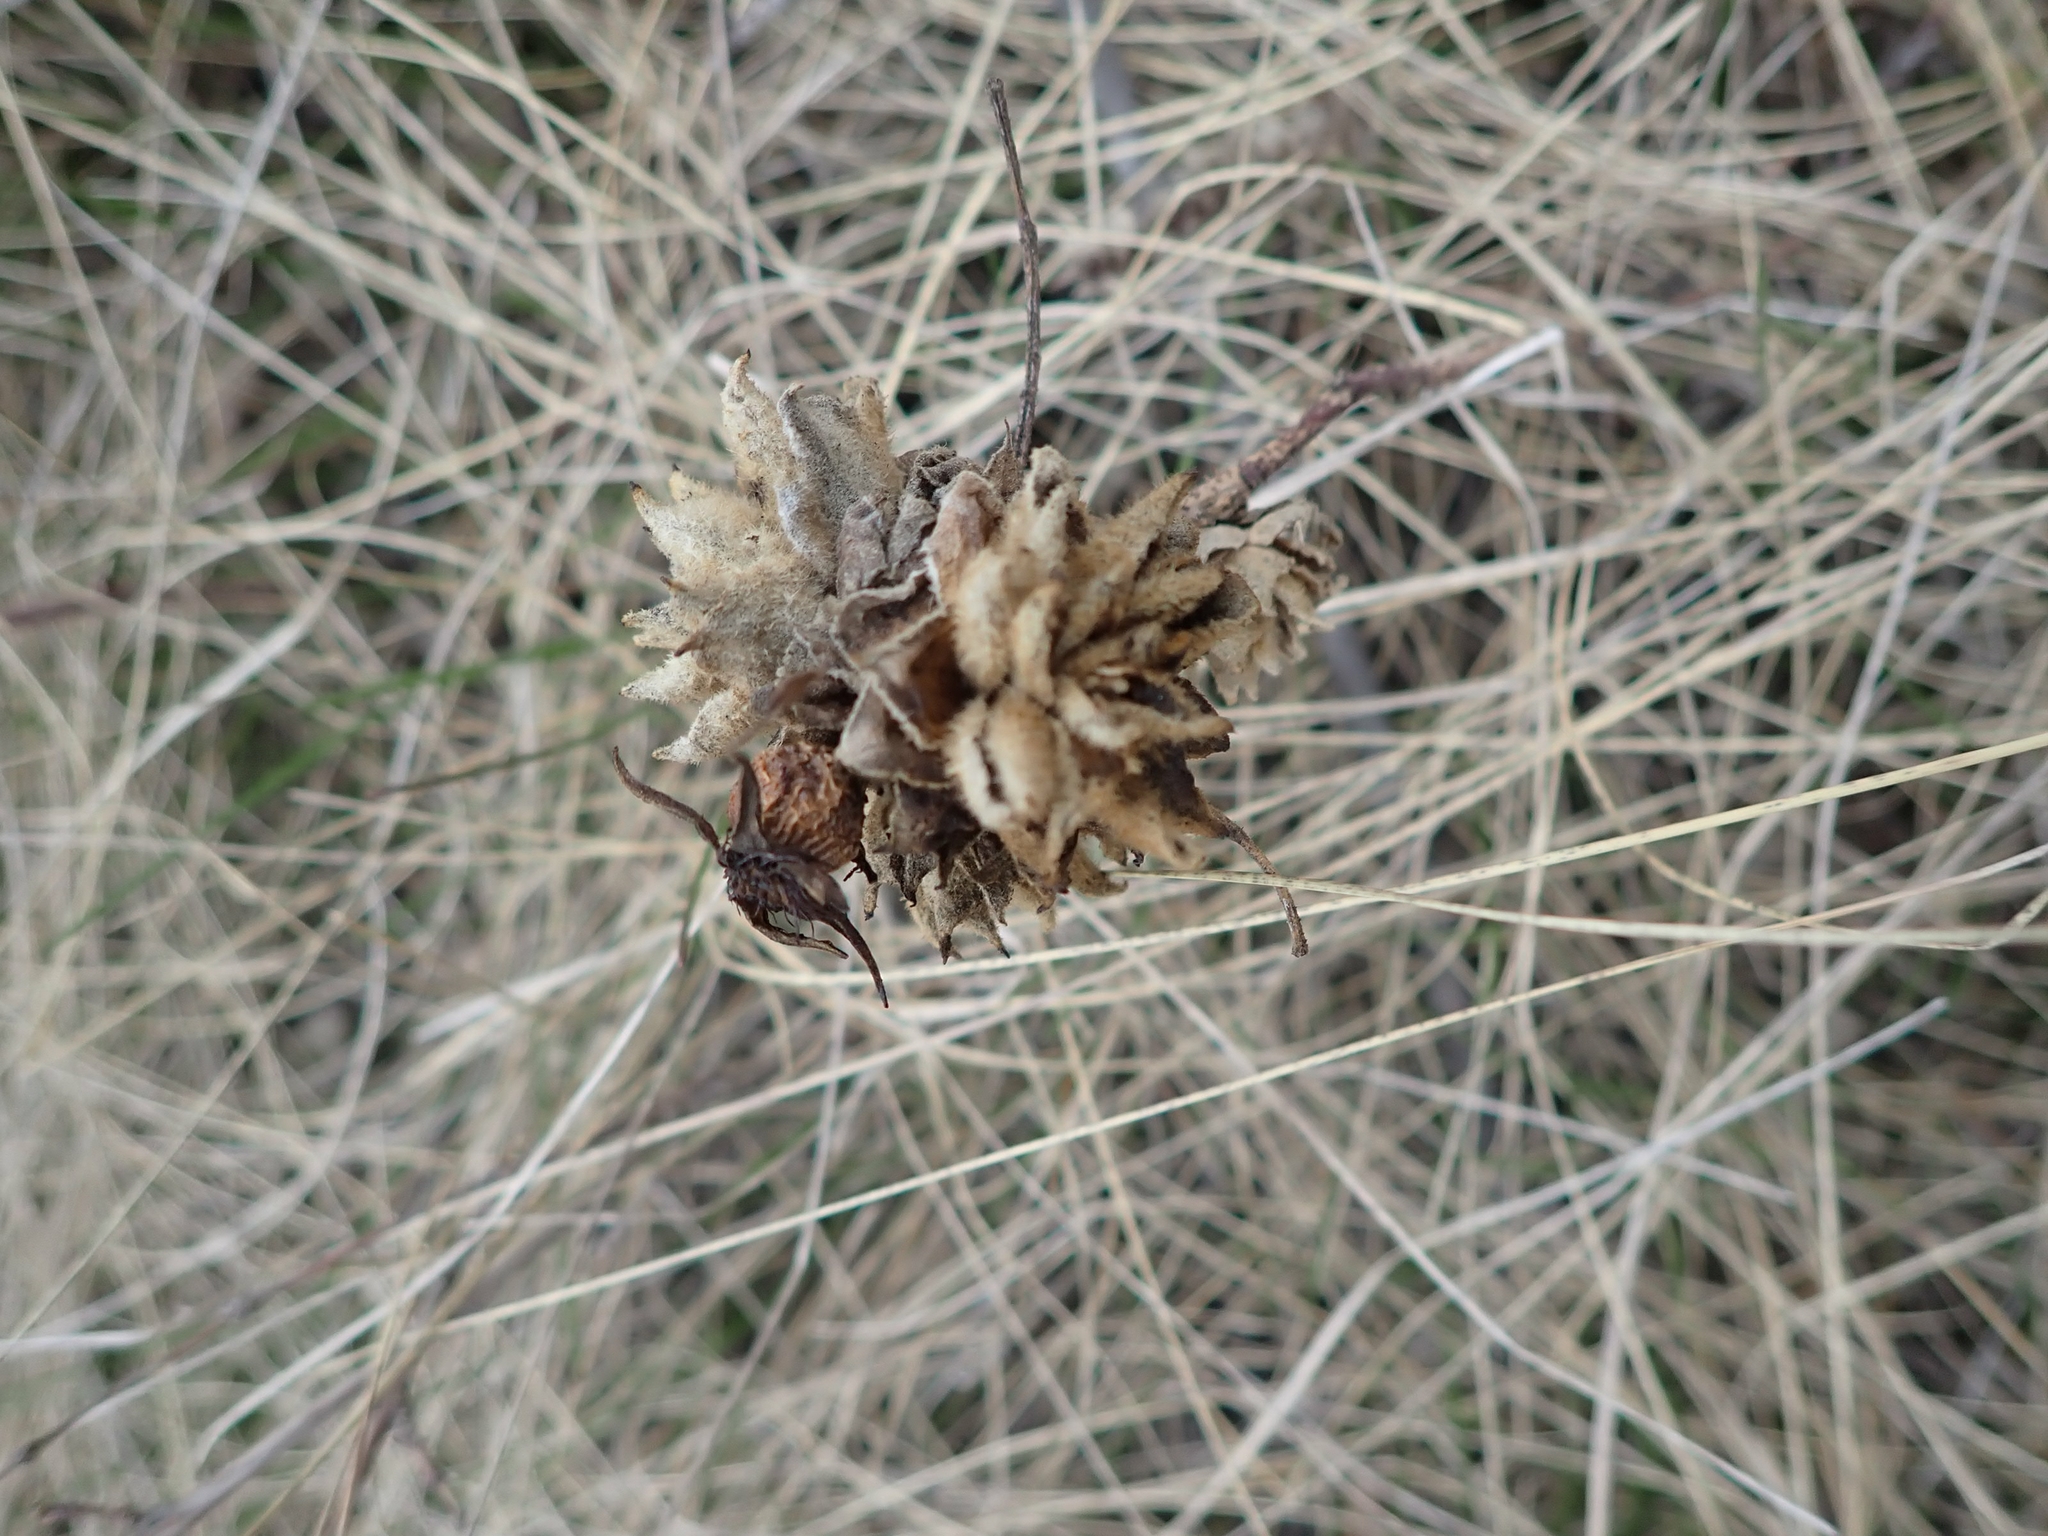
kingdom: Animalia
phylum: Arthropoda
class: Insecta
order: Diptera
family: Cecidomyiidae
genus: Rabdophaga
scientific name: Rabdophaga rosacea
